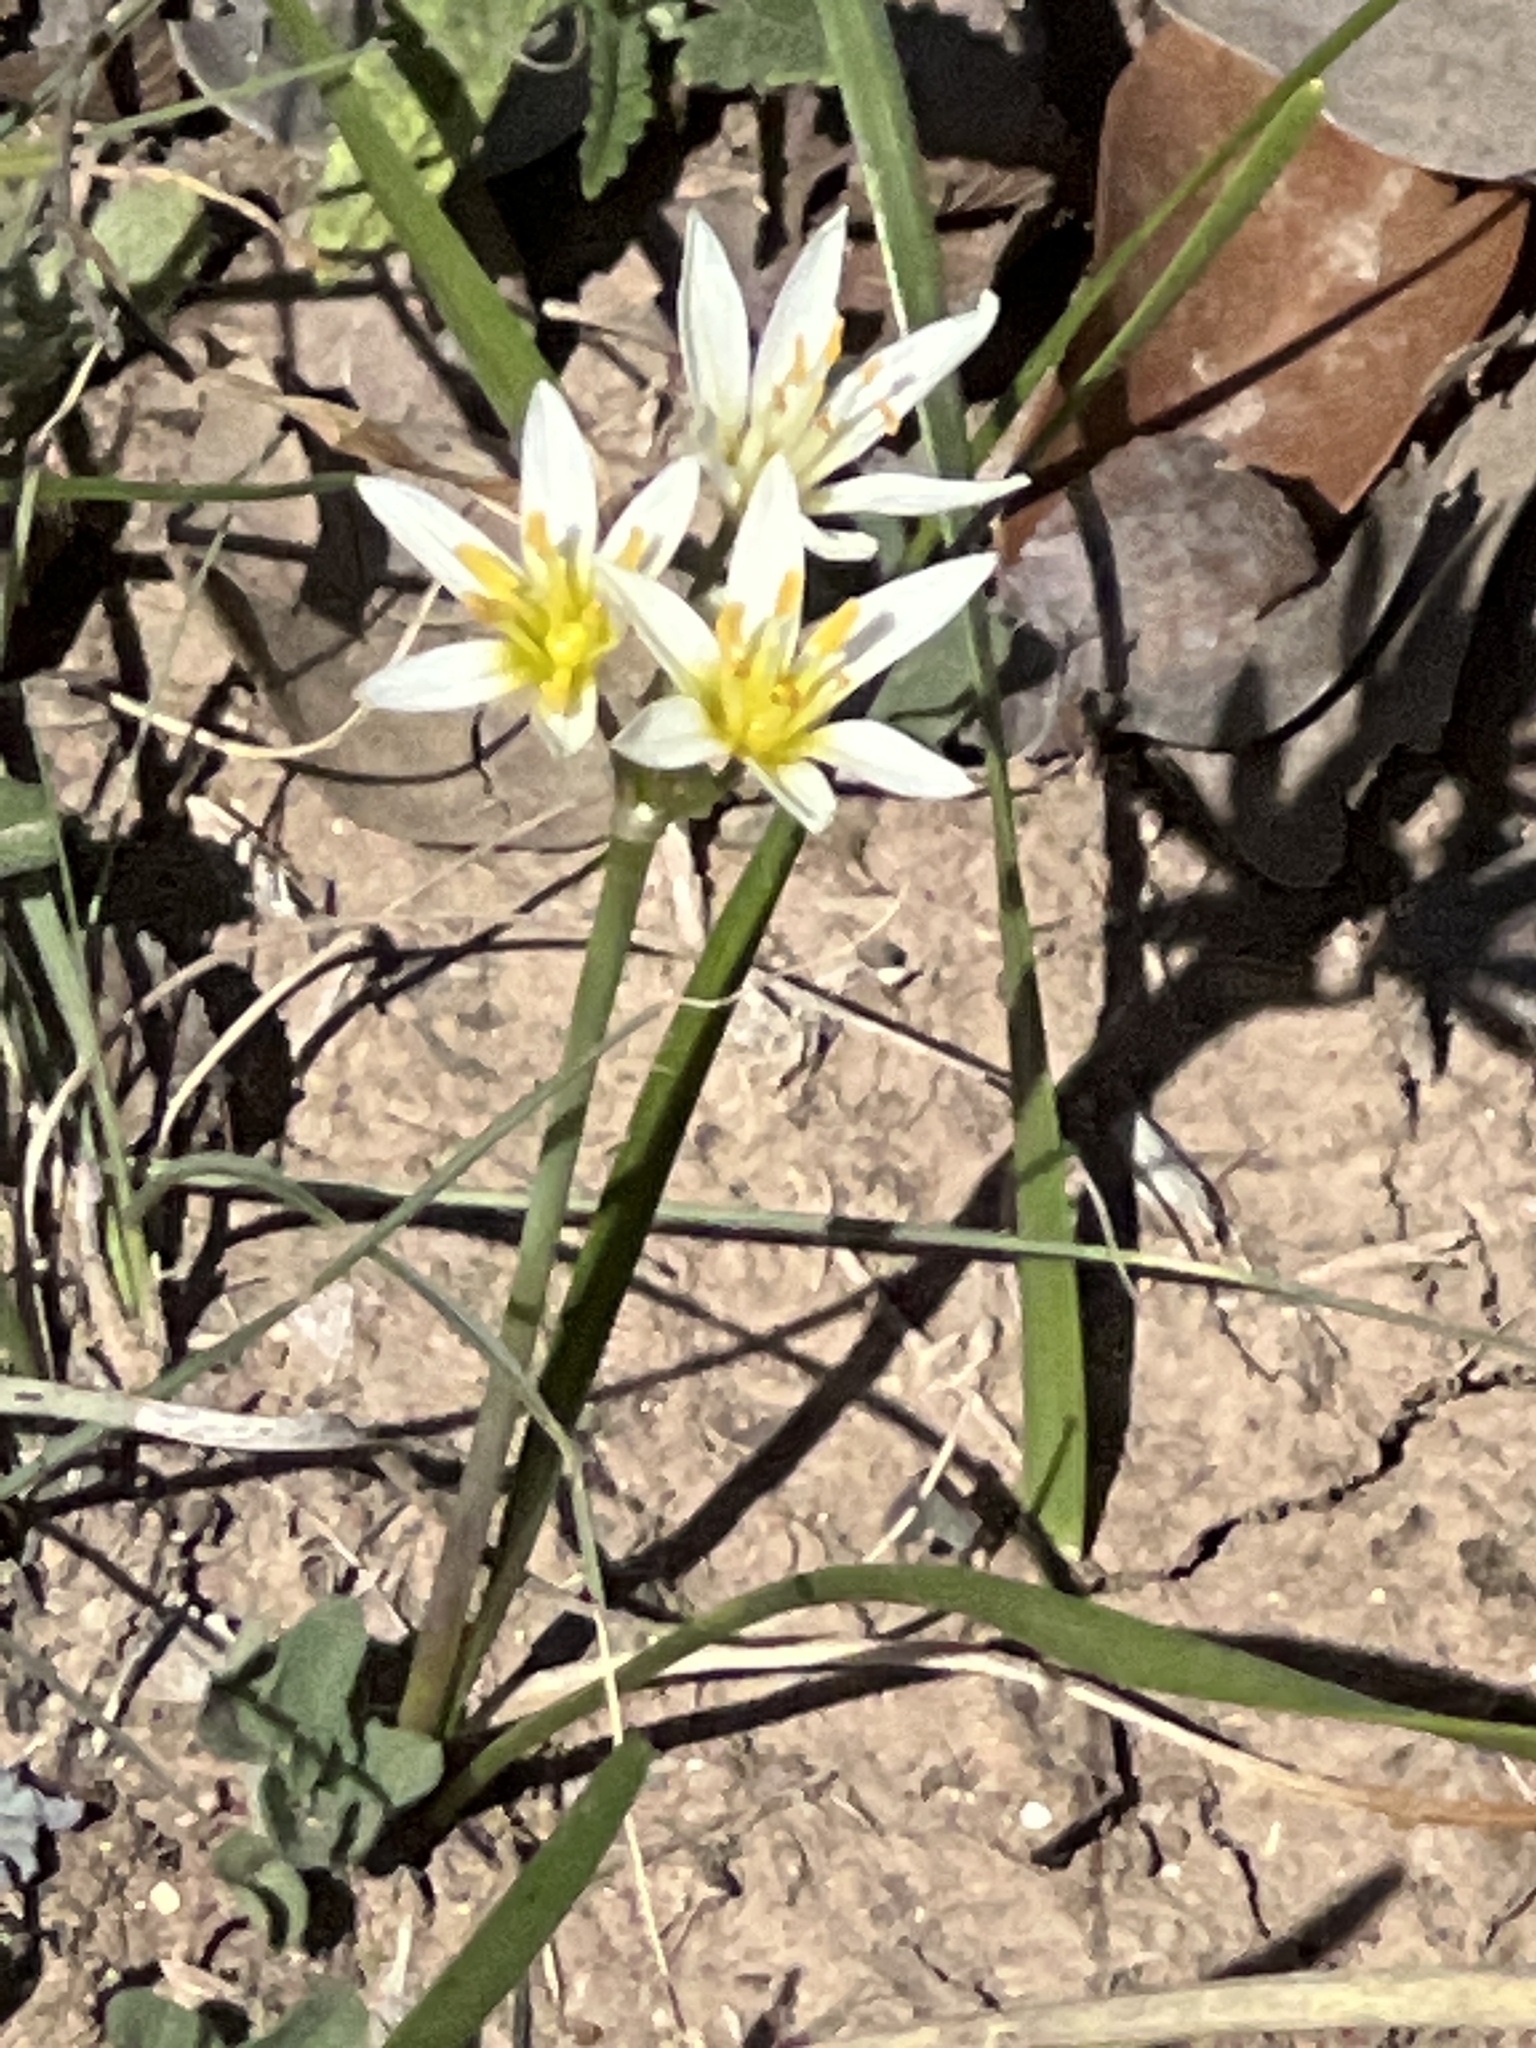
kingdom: Plantae
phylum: Tracheophyta
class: Liliopsida
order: Asparagales
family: Amaryllidaceae
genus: Nothoscordum
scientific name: Nothoscordum bivalve
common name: Crow-poison
